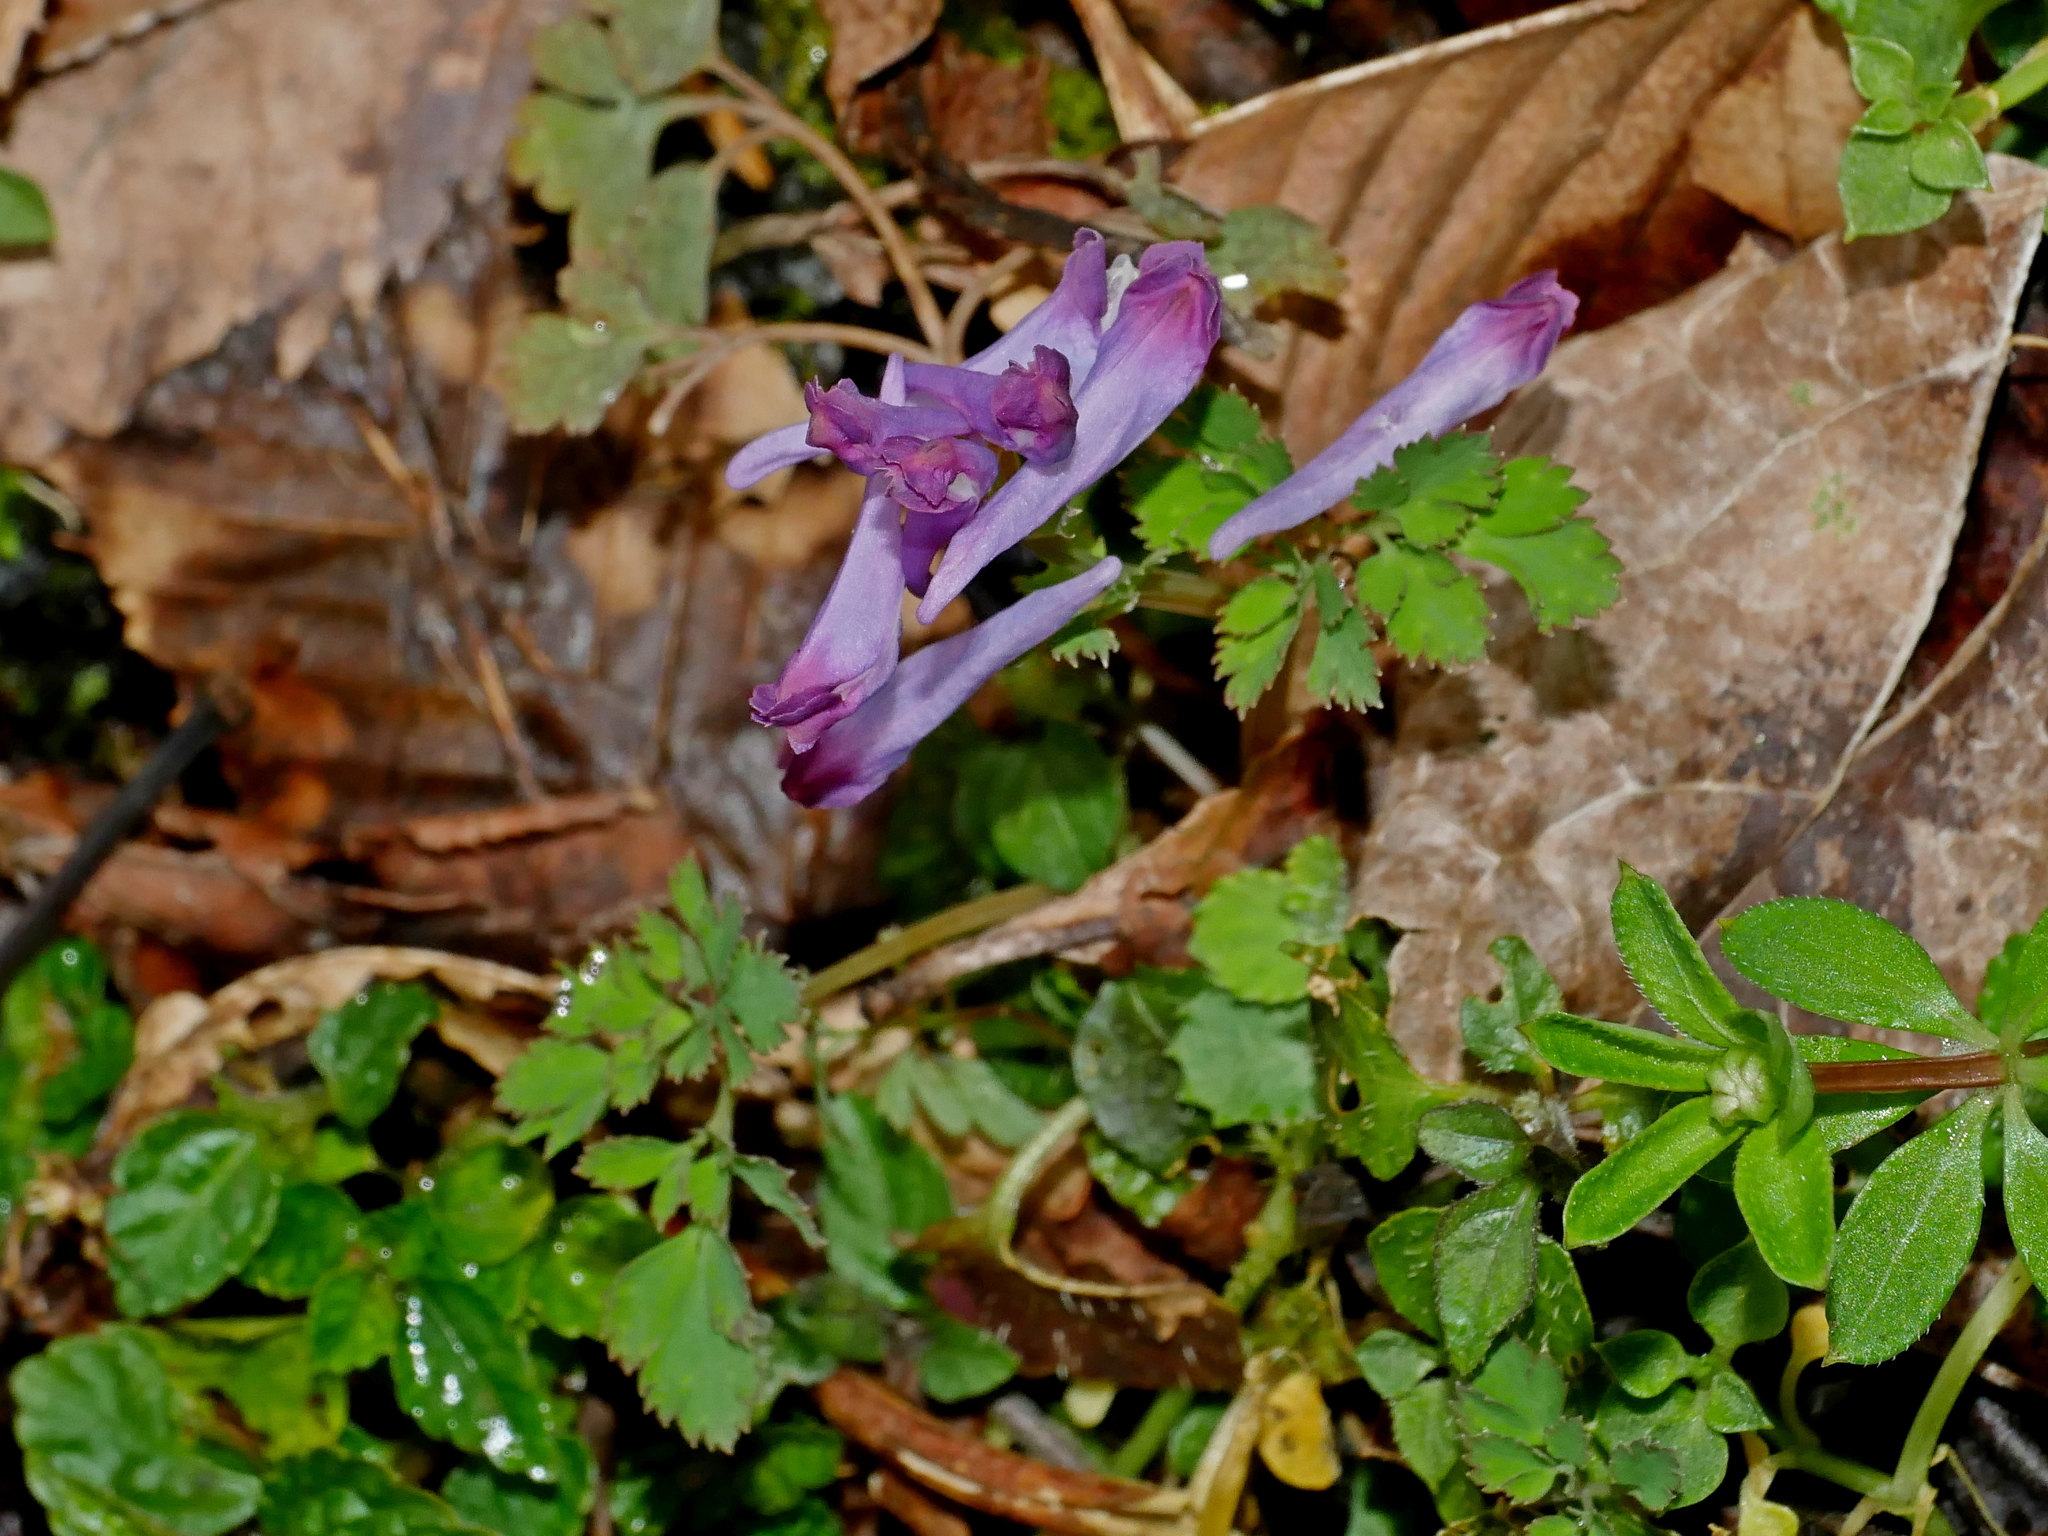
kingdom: Plantae
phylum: Tracheophyta
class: Magnoliopsida
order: Ranunculales
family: Papaveraceae
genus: Corydalis
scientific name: Corydalis incisa
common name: Incised fumewort
